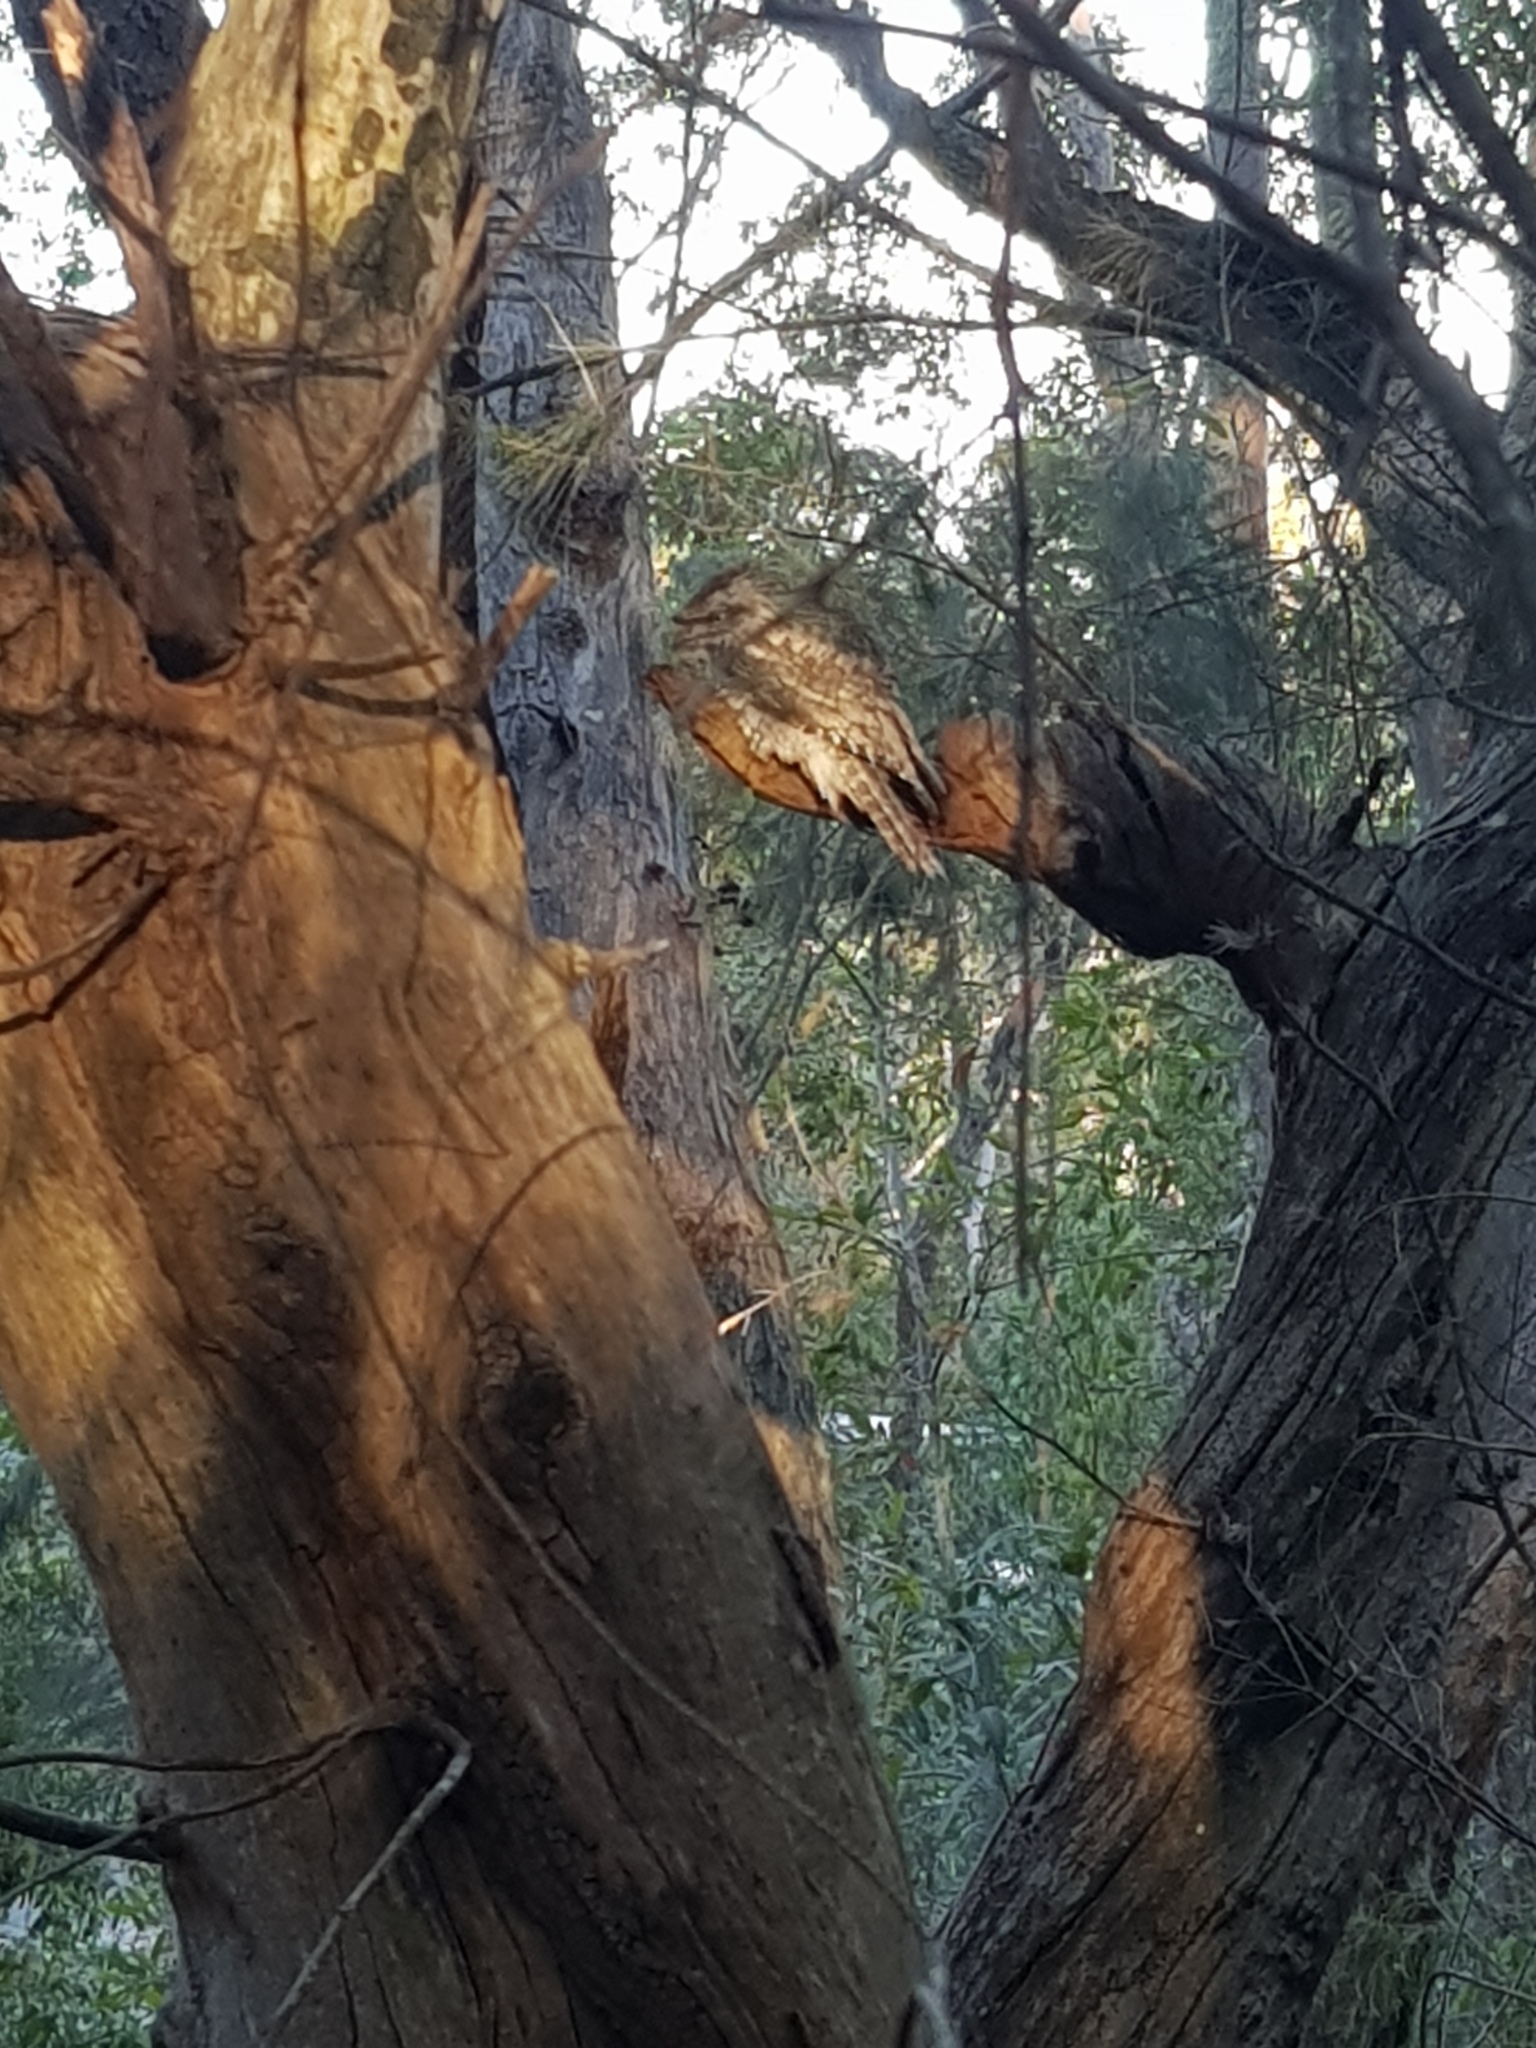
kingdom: Animalia
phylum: Chordata
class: Aves
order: Caprimulgiformes
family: Podargidae
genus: Podargus
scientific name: Podargus strigoides
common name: Tawny frogmouth
